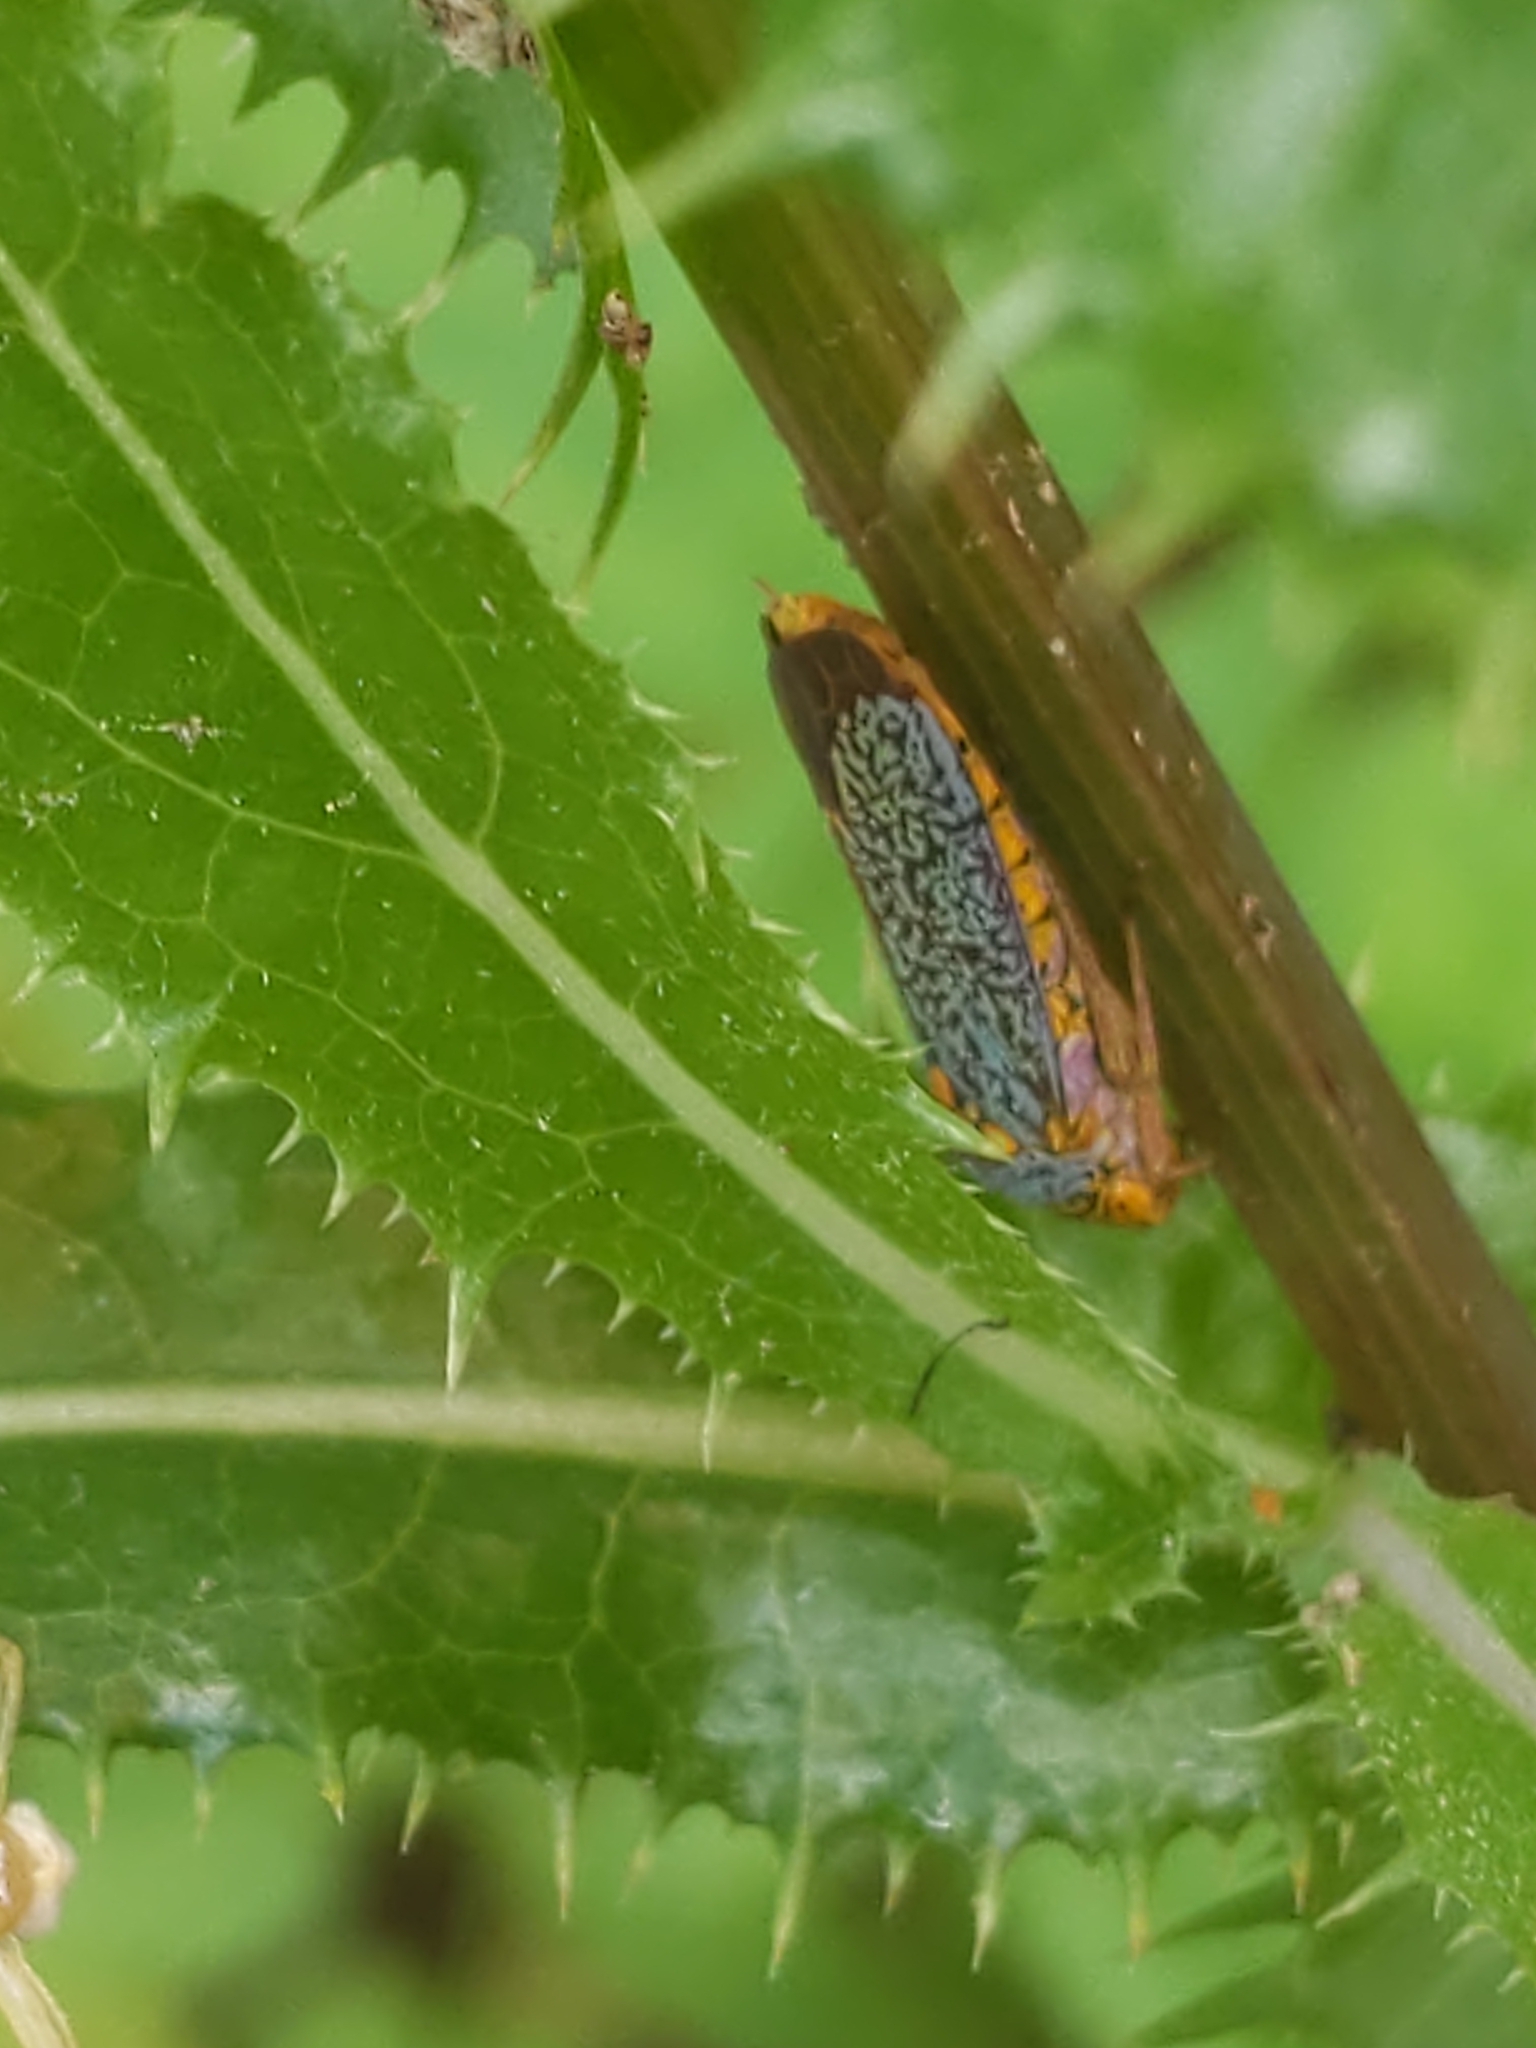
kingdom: Animalia
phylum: Arthropoda
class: Insecta
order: Hemiptera
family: Cicadellidae
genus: Oncometopia
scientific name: Oncometopia orbona
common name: Broad-headed sharpshooter
